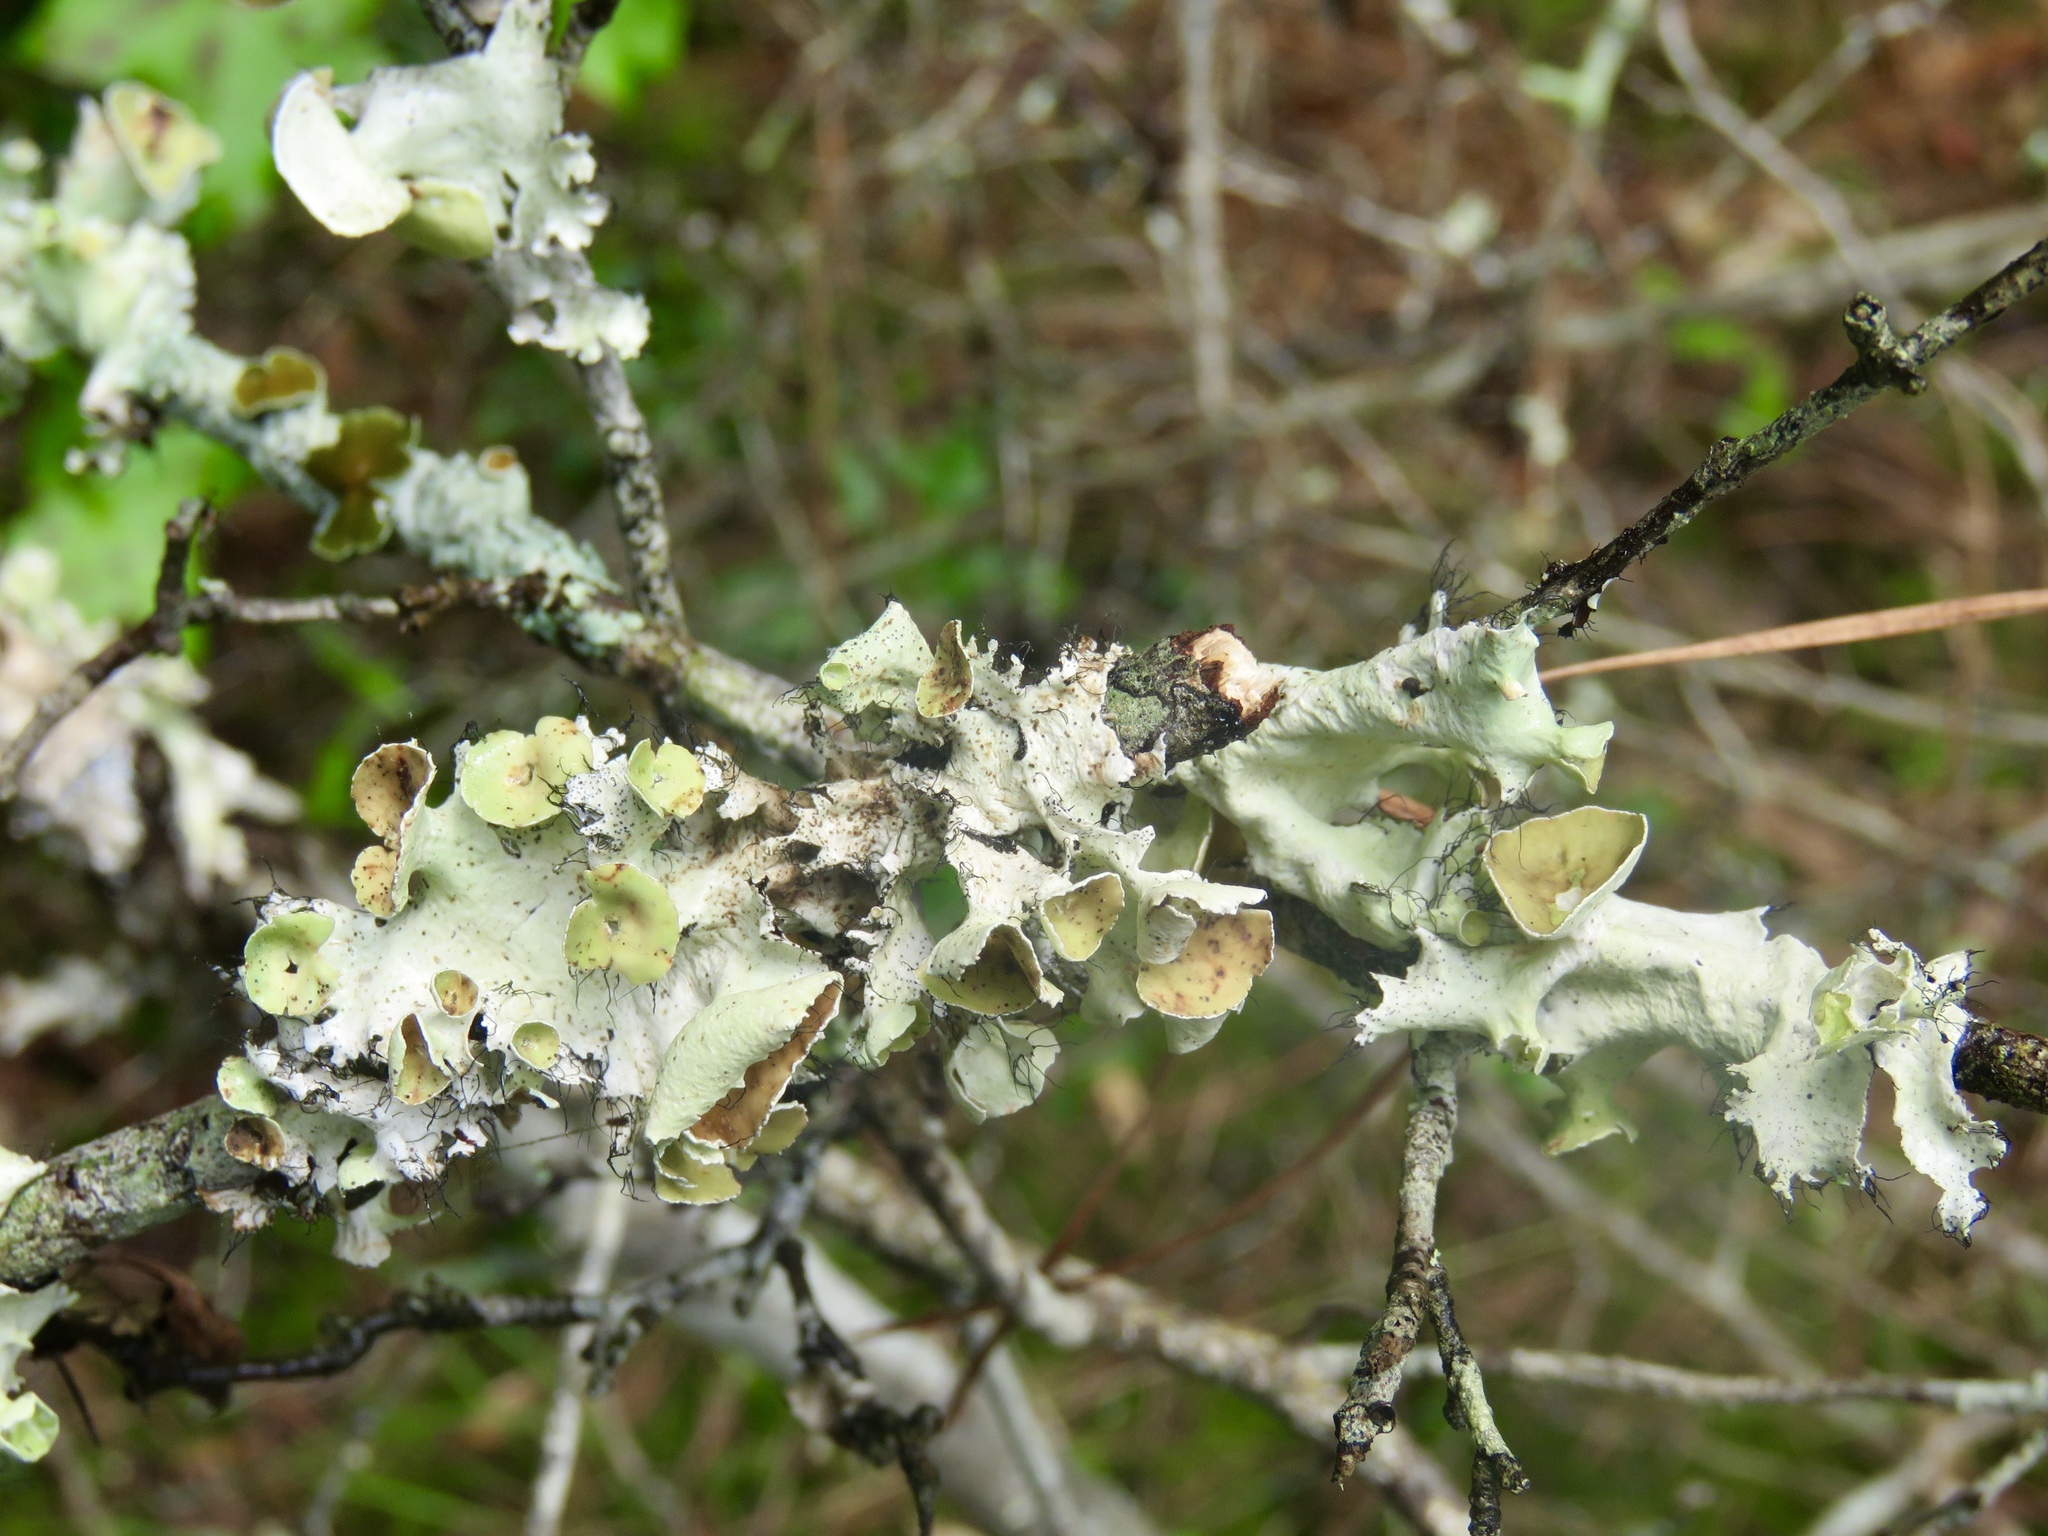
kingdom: Fungi
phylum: Ascomycota
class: Lecanoromycetes
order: Lecanorales
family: Parmeliaceae
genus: Parmotrema
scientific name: Parmotrema perforatum
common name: Perforated ruffle lichen
